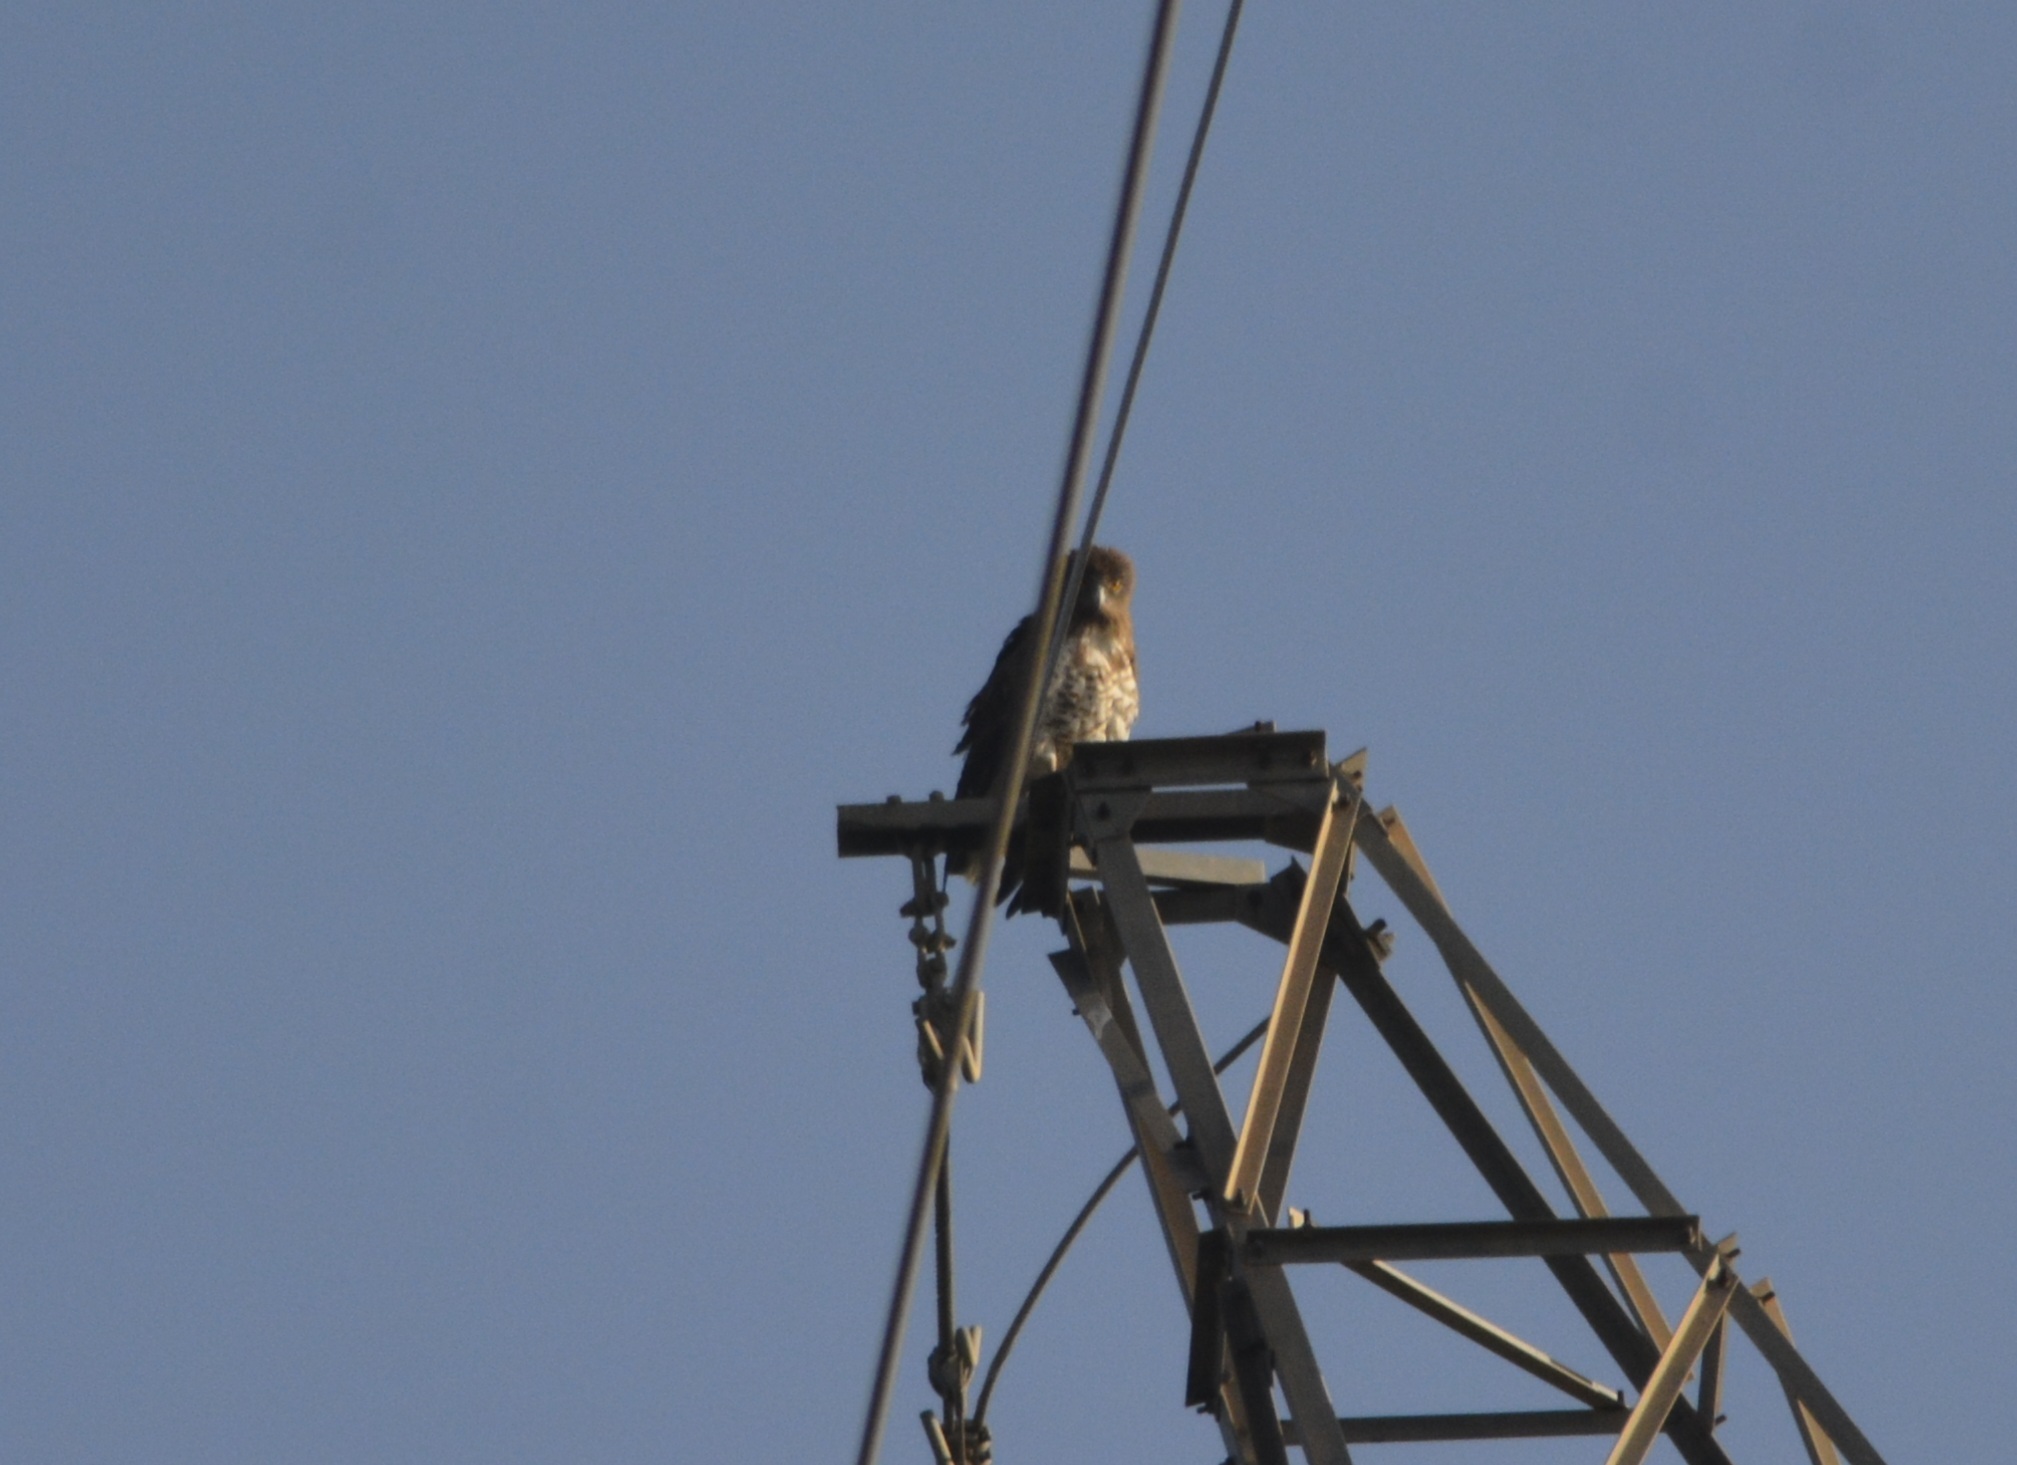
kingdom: Animalia
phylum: Chordata
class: Aves
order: Accipitriformes
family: Accipitridae
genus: Circaetus
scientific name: Circaetus gallicus
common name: Short-toed snake eagle
